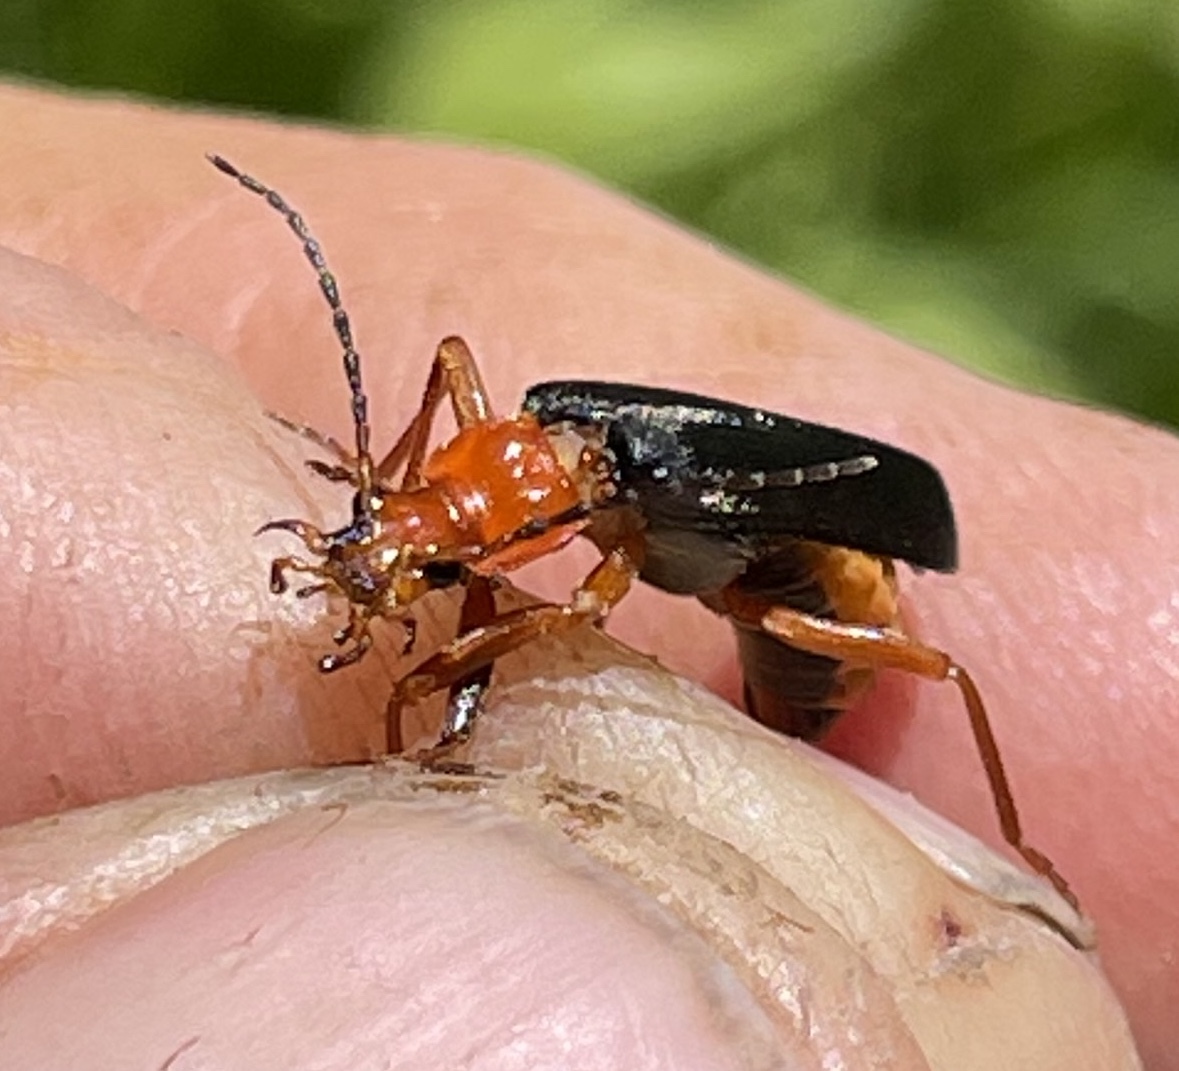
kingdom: Animalia
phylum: Arthropoda
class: Insecta
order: Coleoptera
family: Cantharidae
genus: Podabrus
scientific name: Podabrus pruinosus
